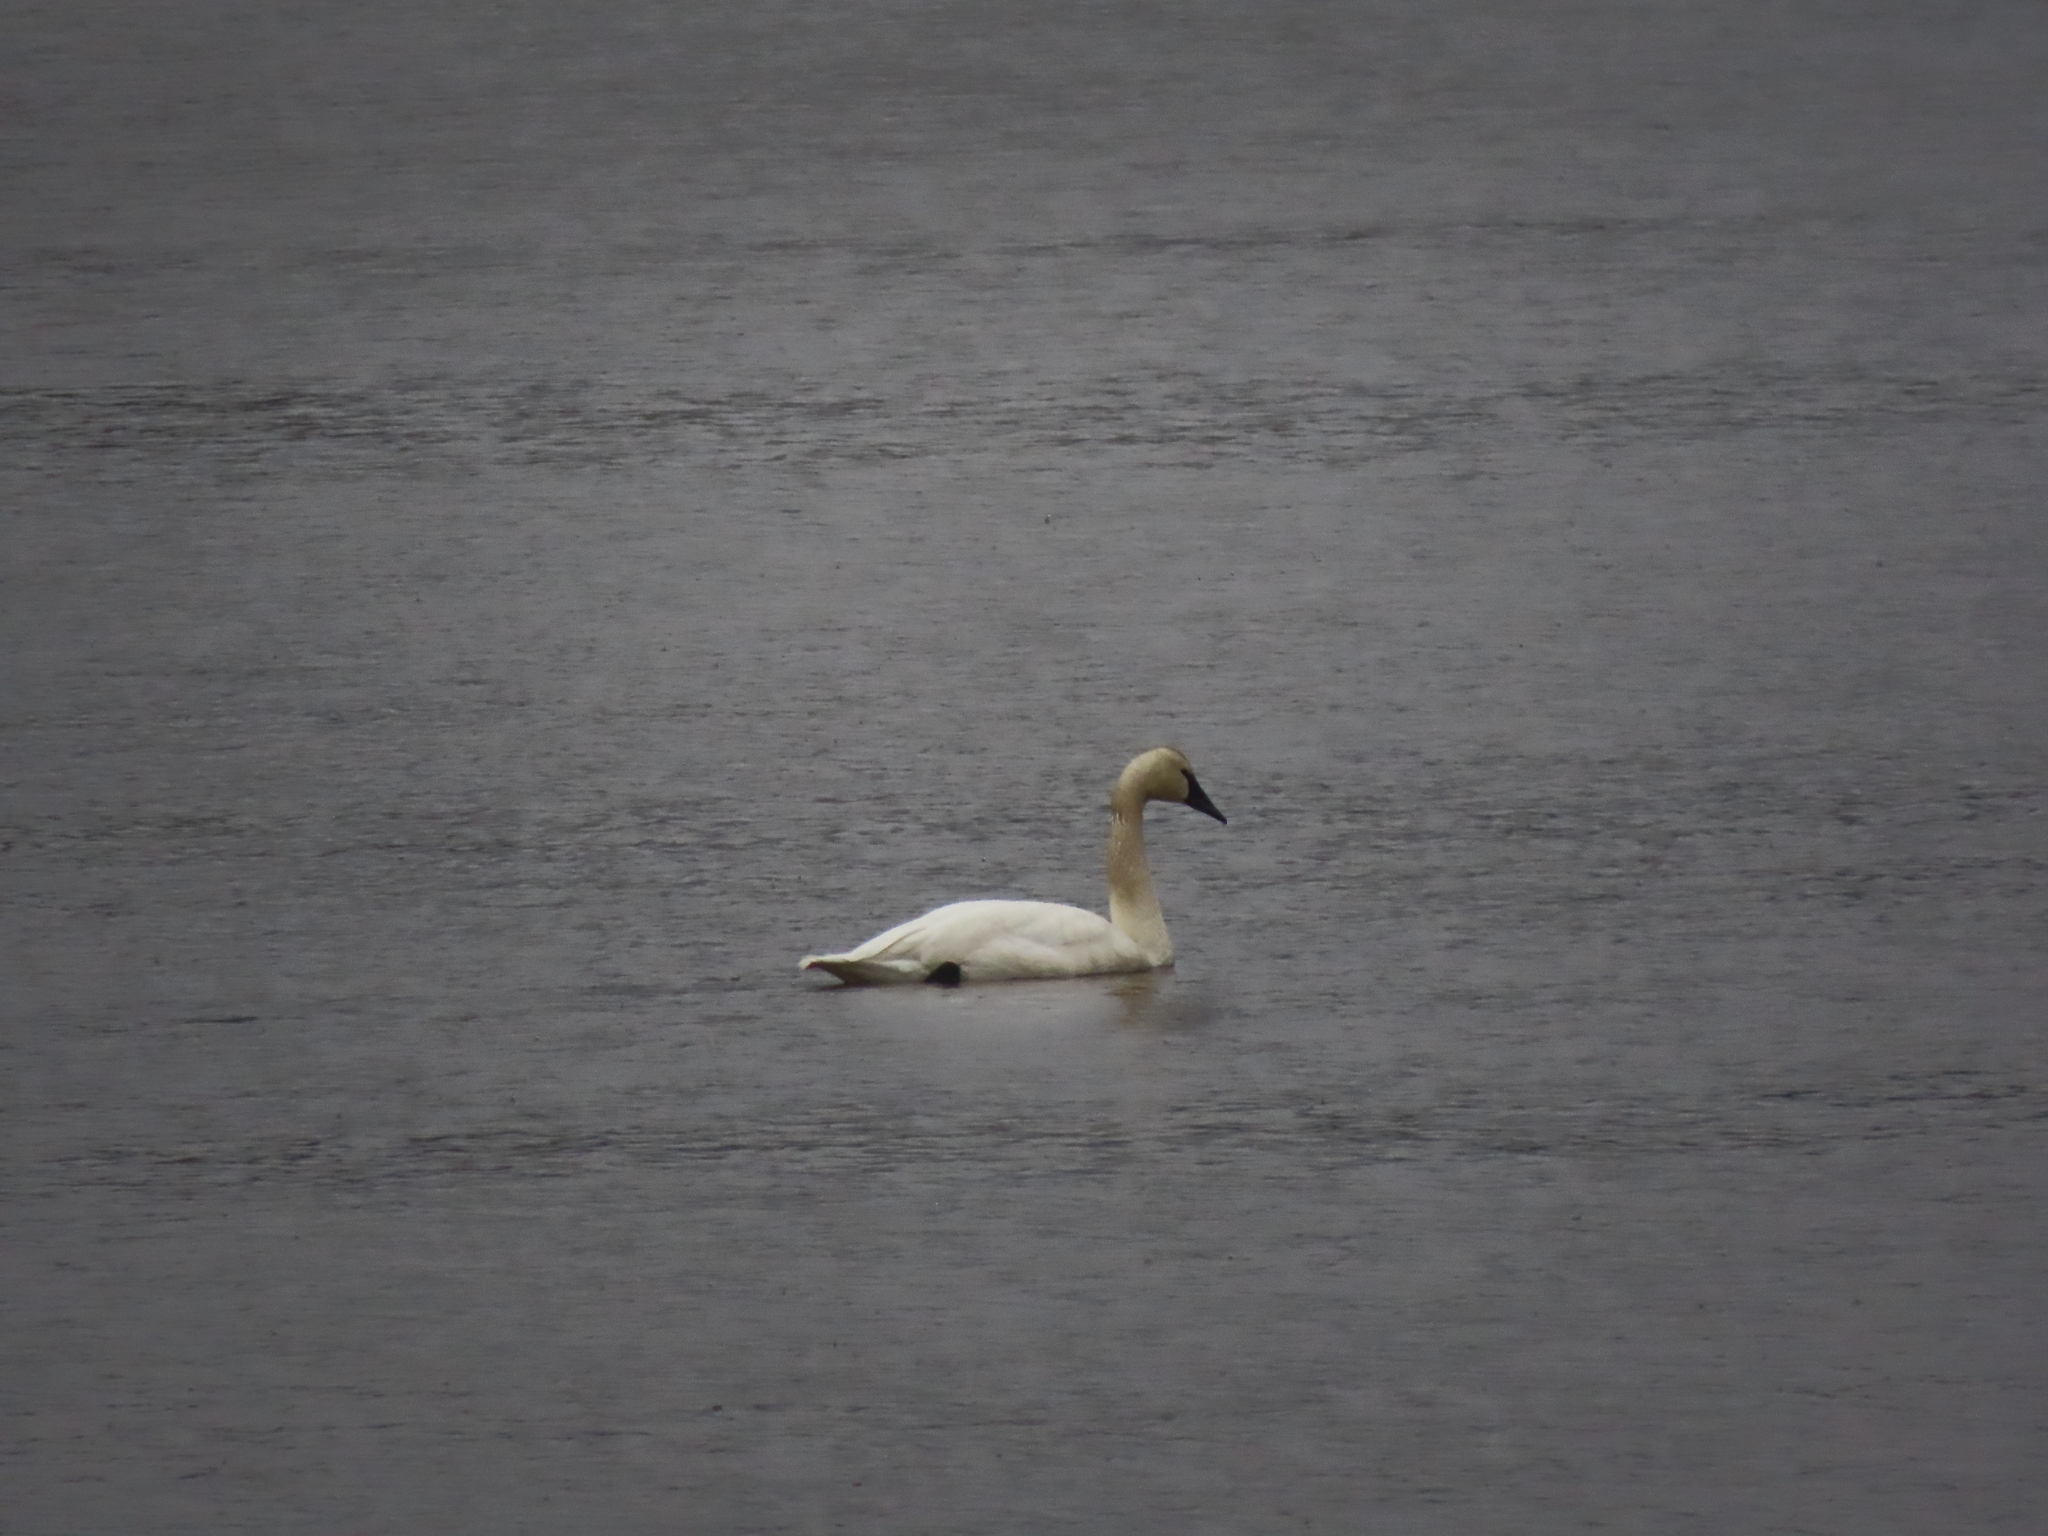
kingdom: Animalia
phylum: Chordata
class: Aves
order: Anseriformes
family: Anatidae
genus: Cygnus
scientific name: Cygnus buccinator
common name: Trumpeter swan
